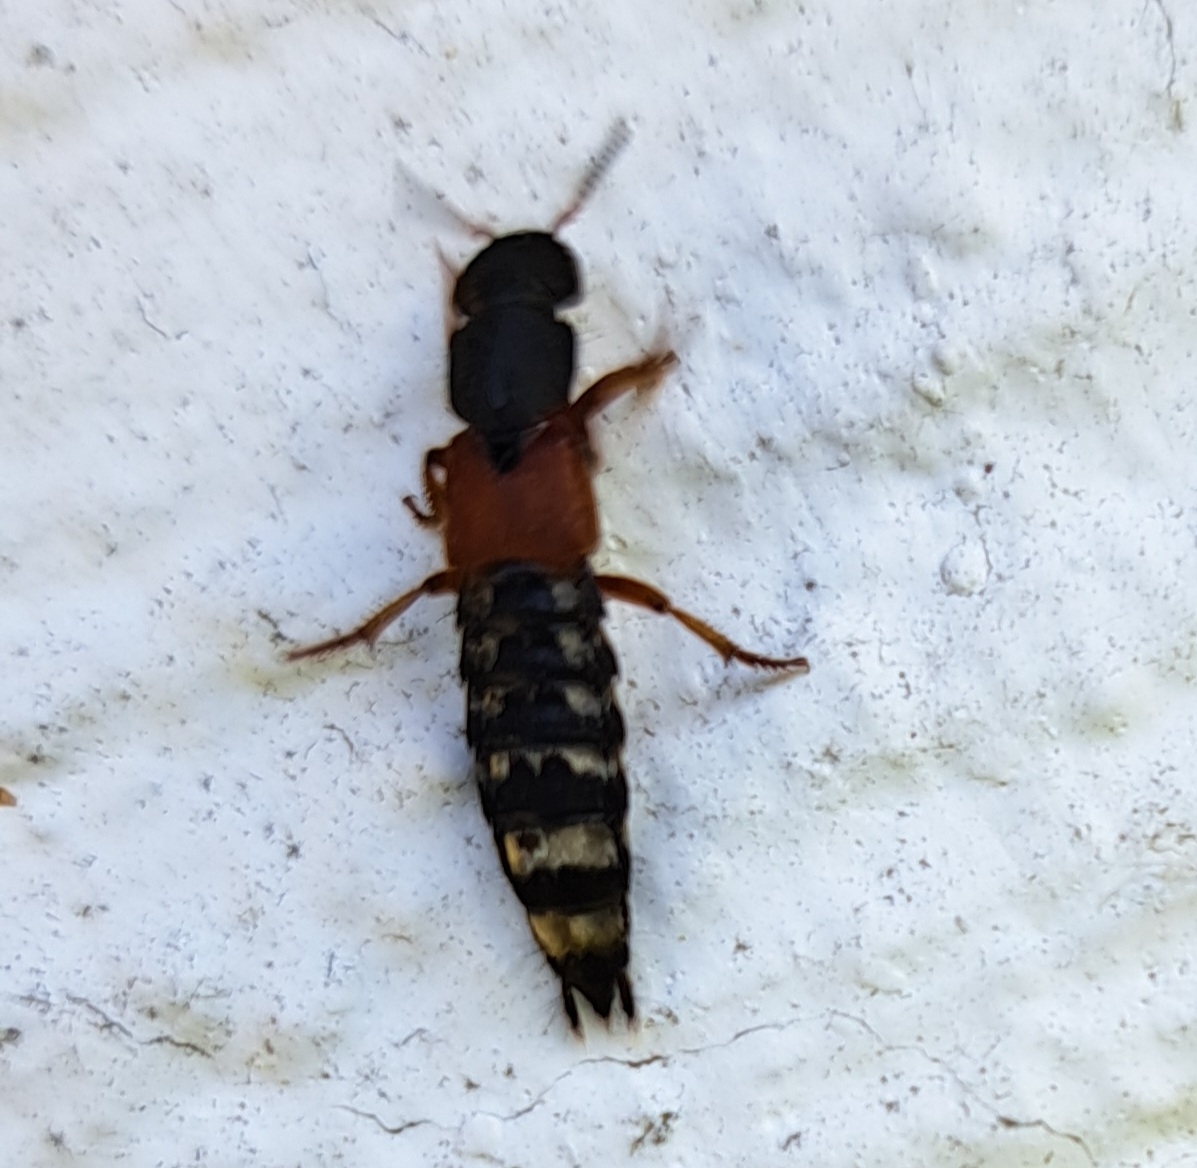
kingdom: Animalia
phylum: Arthropoda
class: Insecta
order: Coleoptera
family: Staphylinidae
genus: Platydracus
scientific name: Platydracus stercorarius
